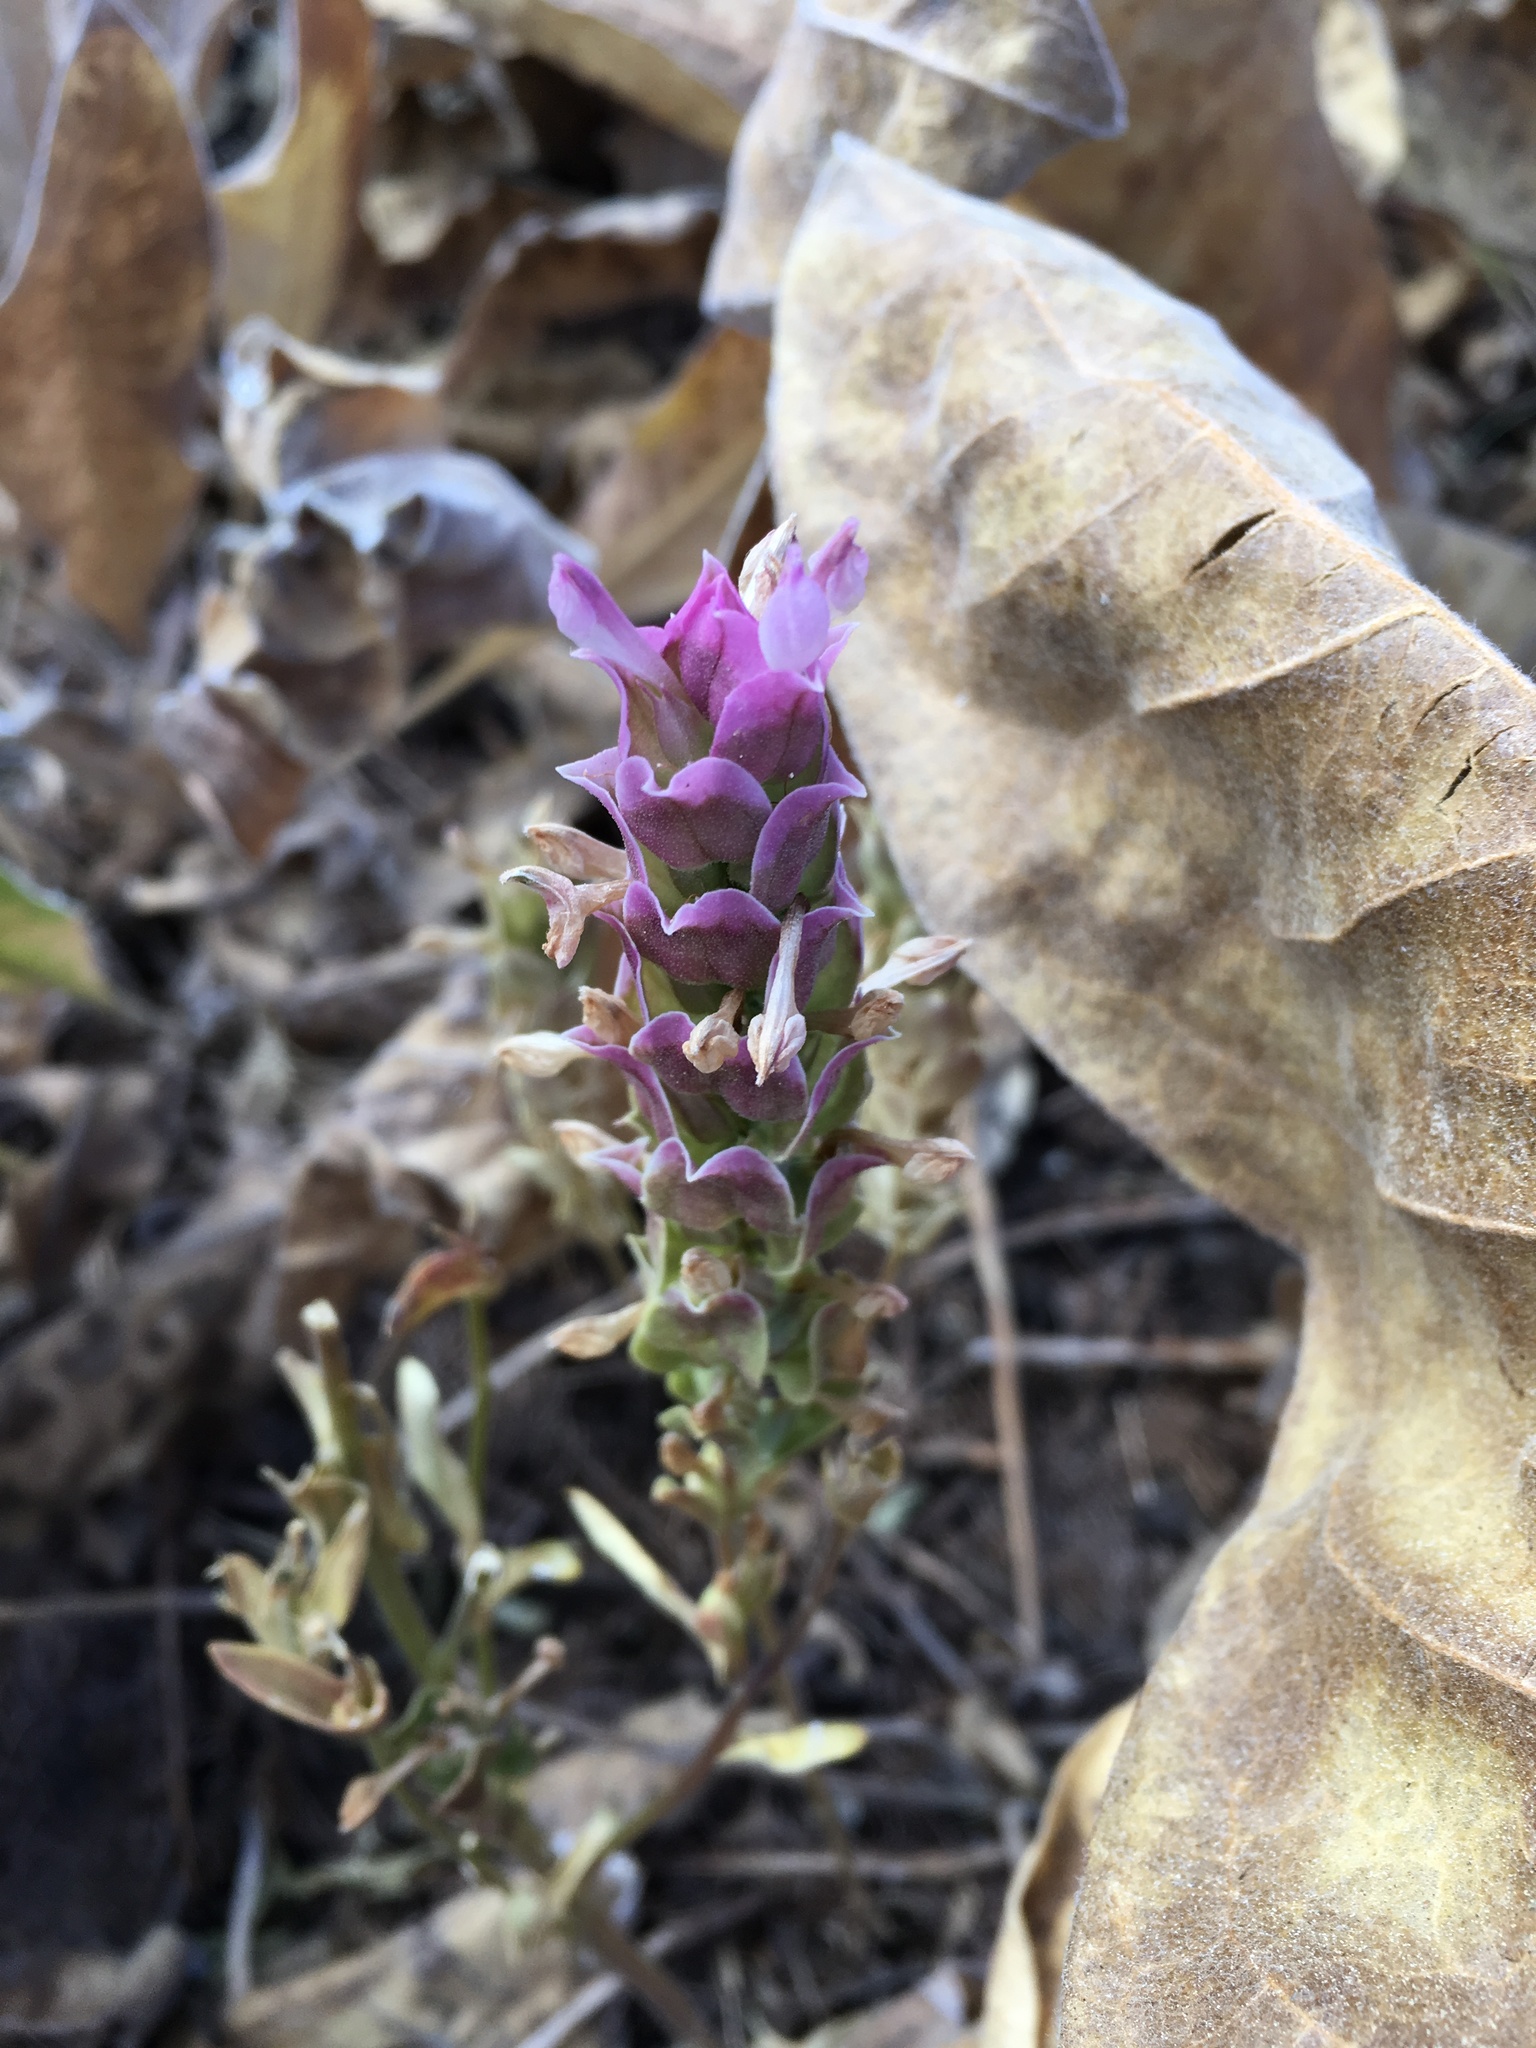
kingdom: Plantae
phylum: Tracheophyta
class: Magnoliopsida
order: Lamiales
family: Orobanchaceae
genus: Orthocarpus
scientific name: Orthocarpus cuspidatus
